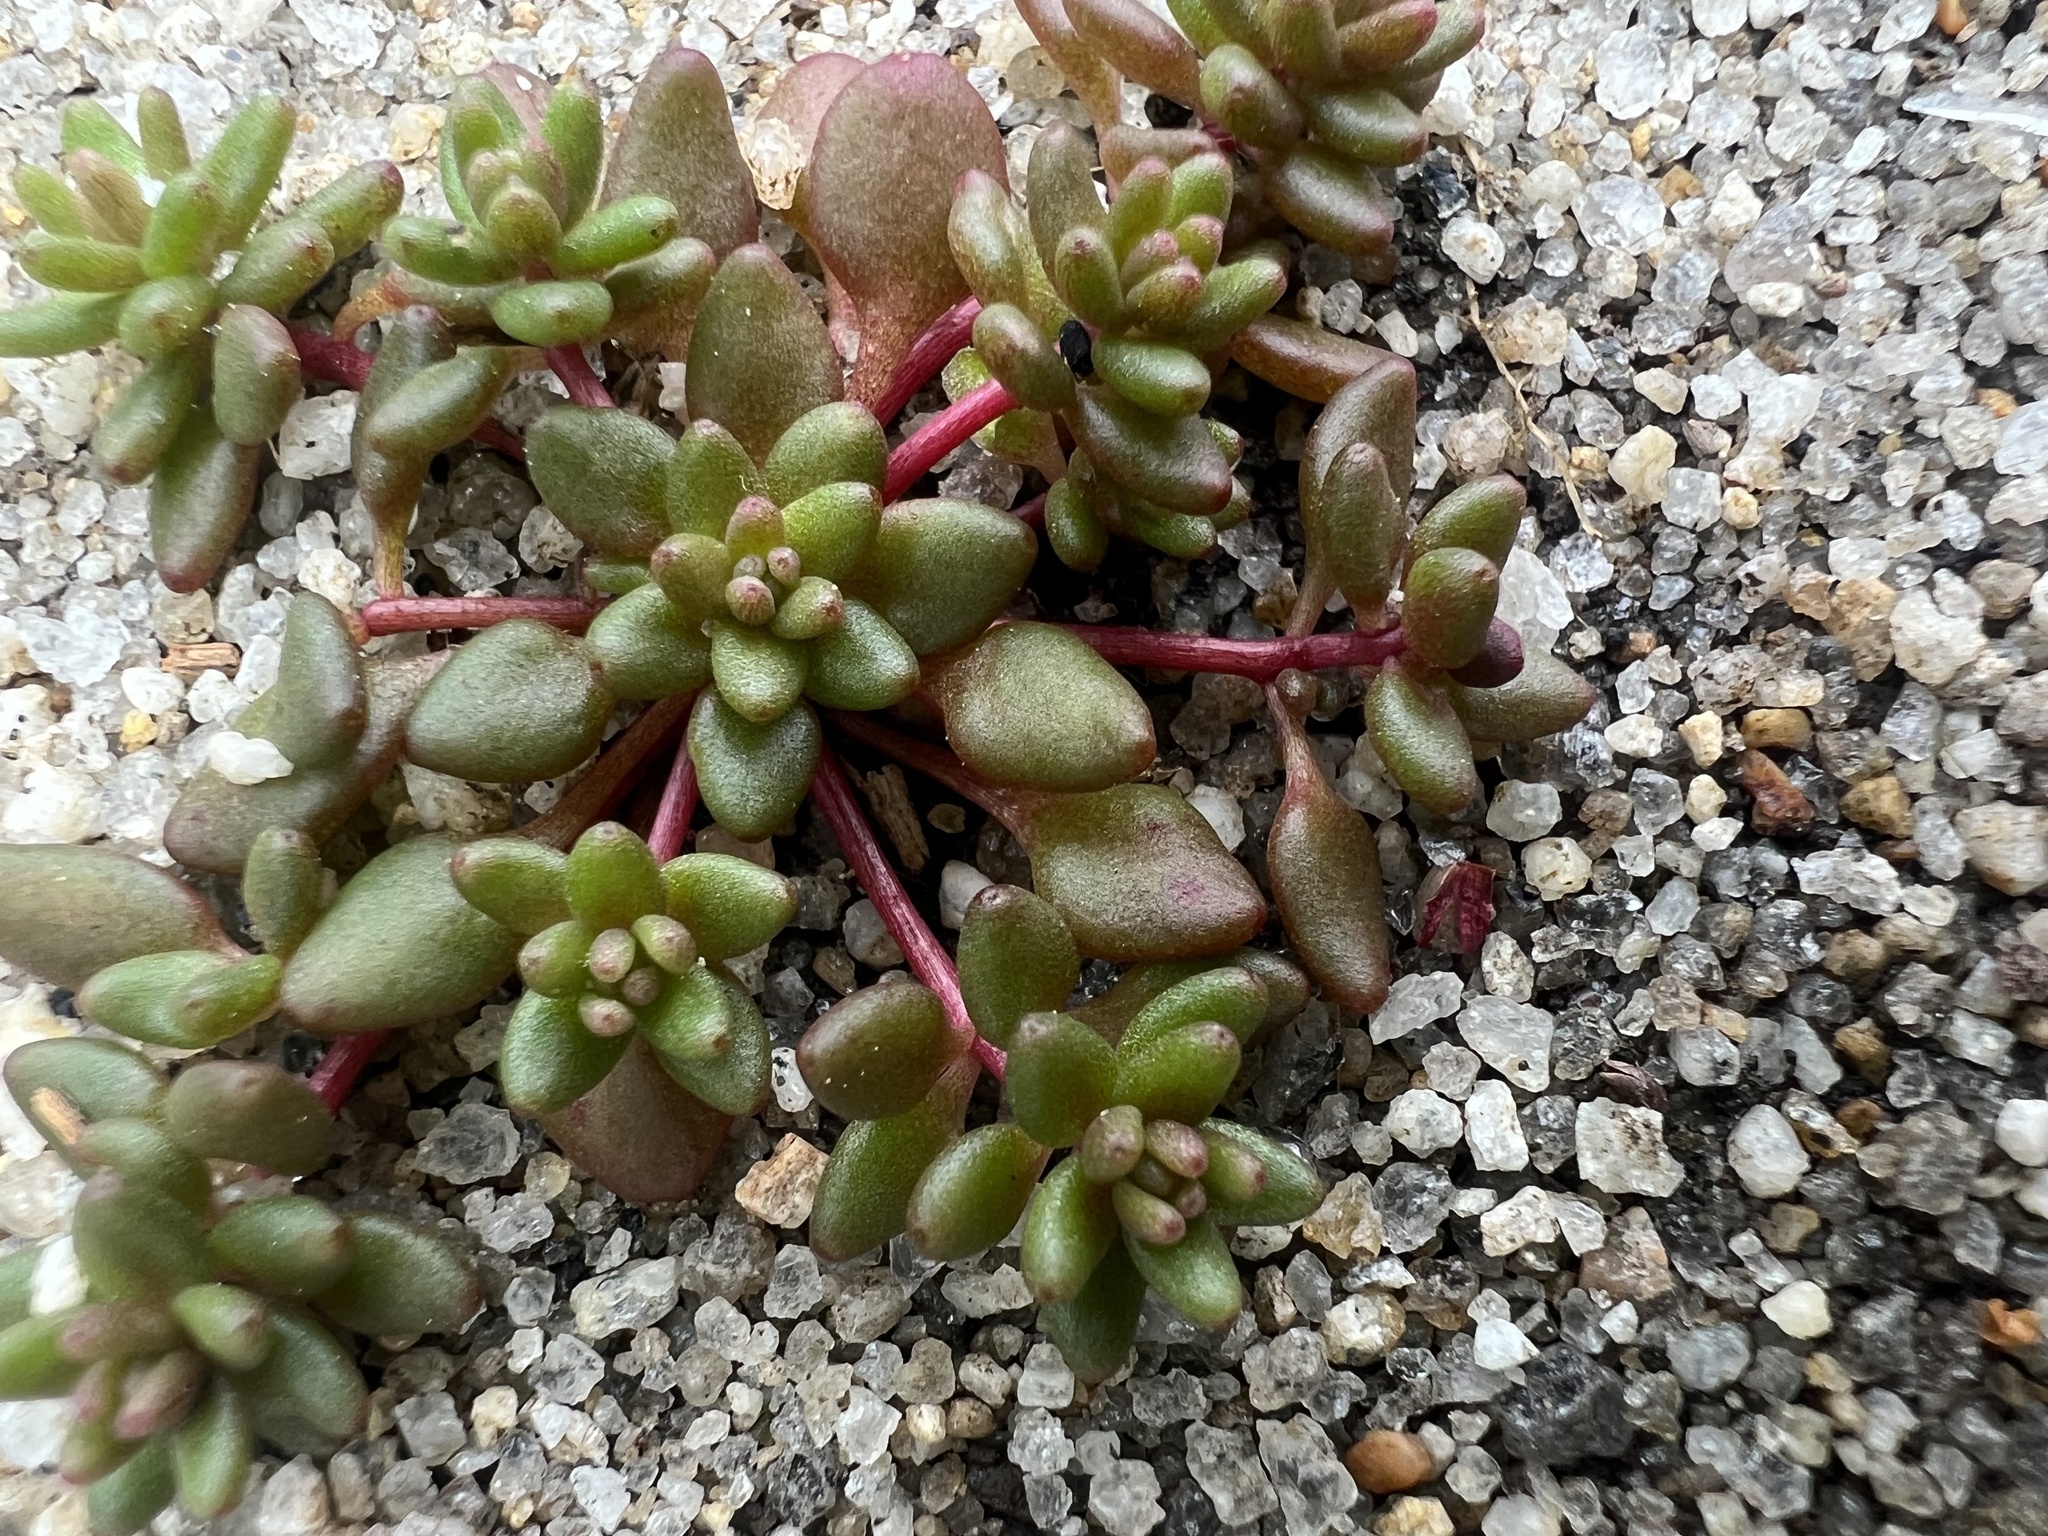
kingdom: Plantae
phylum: Tracheophyta
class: Magnoliopsida
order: Saxifragales
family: Crassulaceae
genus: Sedum
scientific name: Sedum smallii
